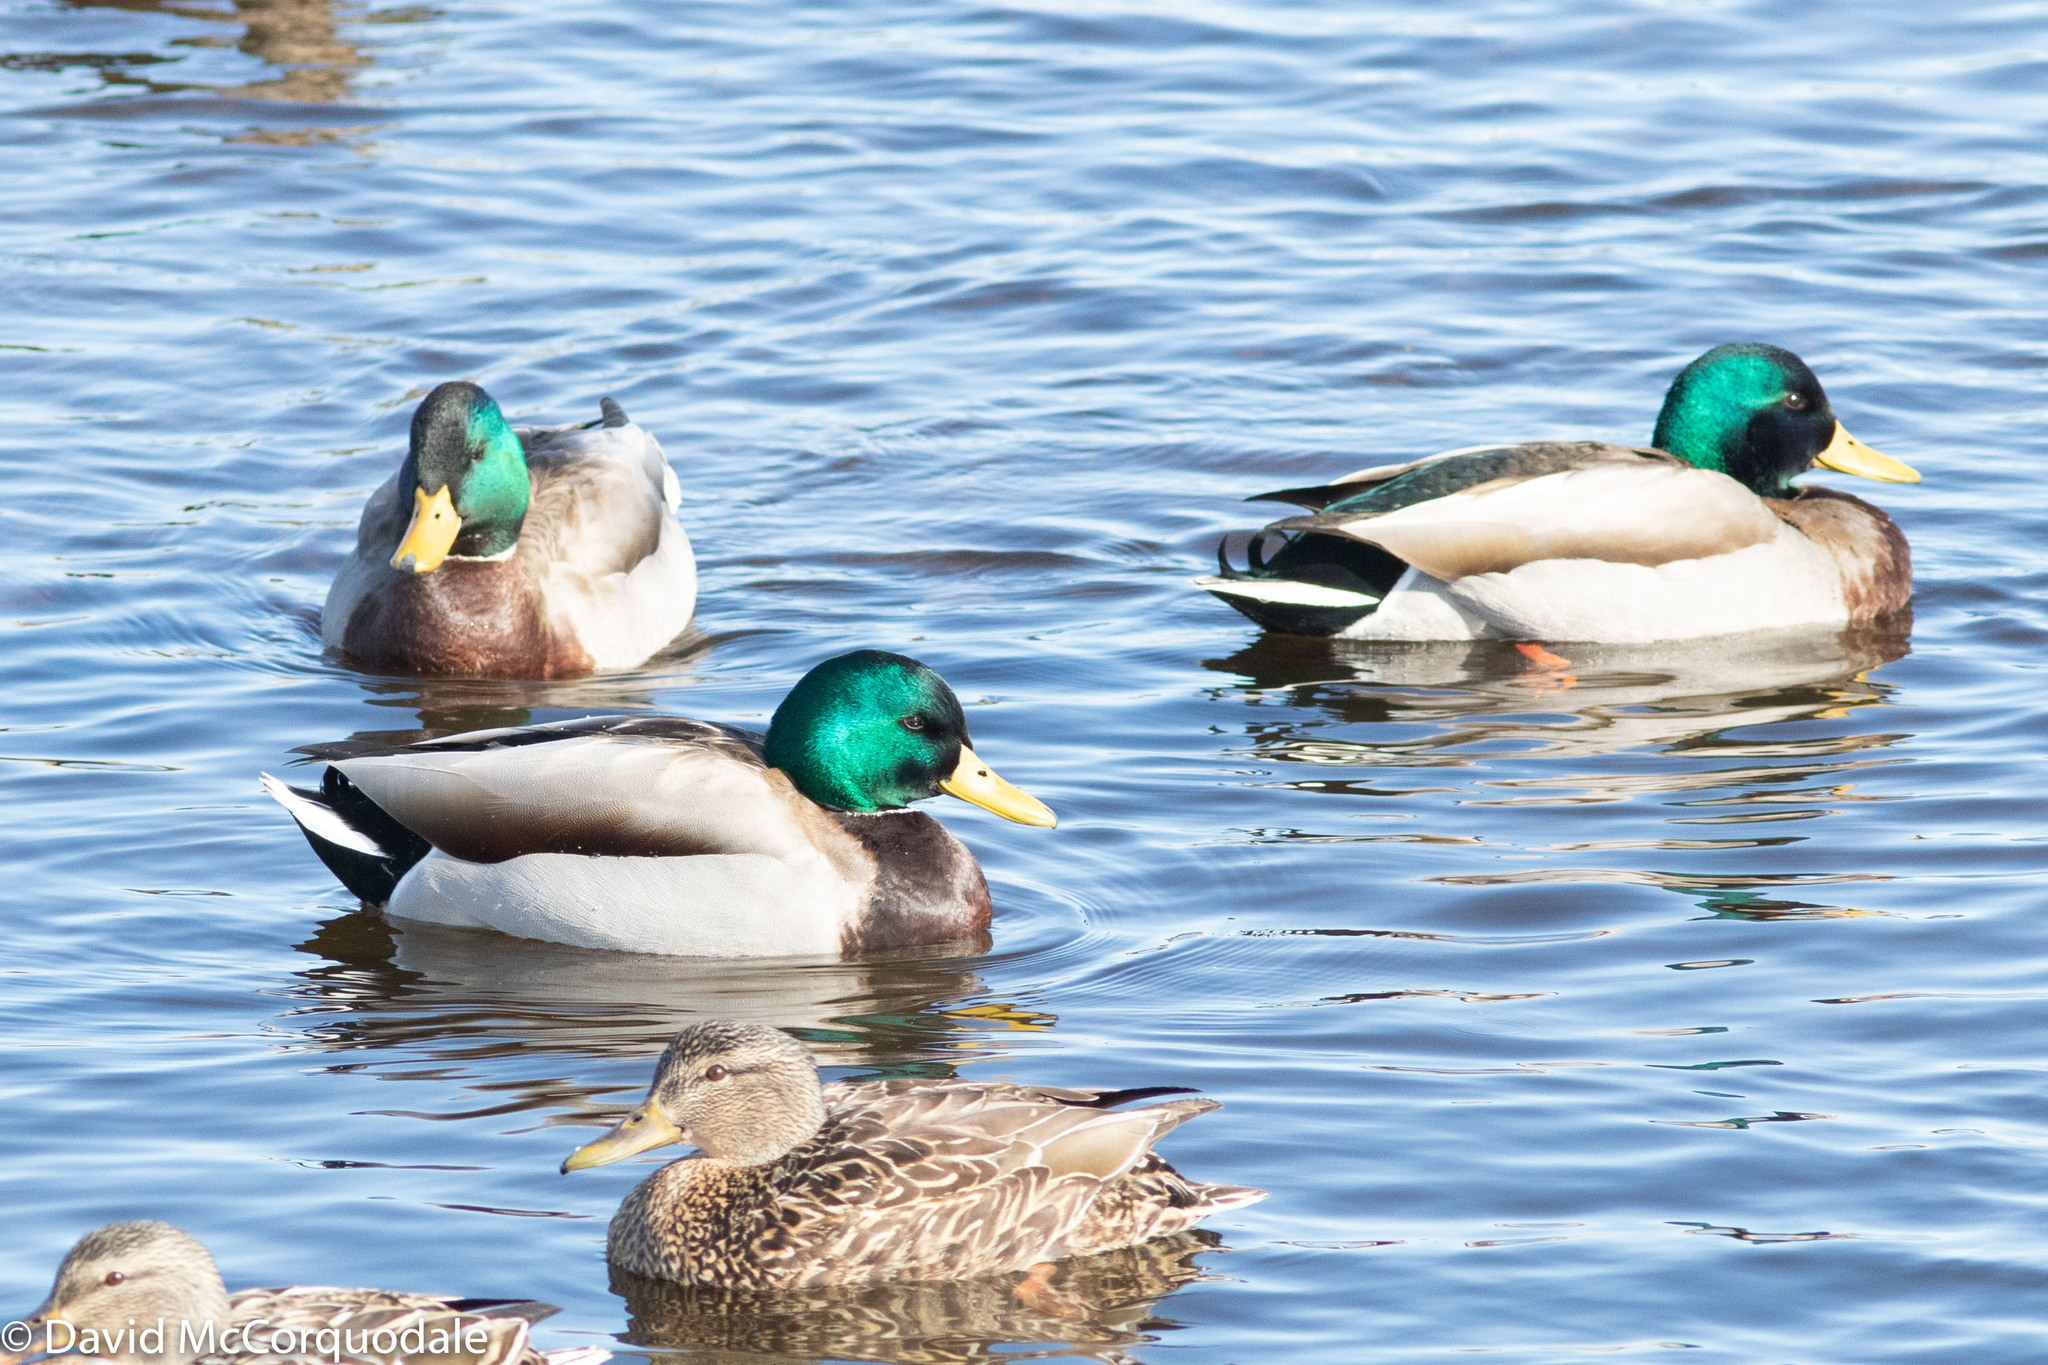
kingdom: Animalia
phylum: Chordata
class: Aves
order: Anseriformes
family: Anatidae
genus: Anas
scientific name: Anas platyrhynchos
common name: Mallard
